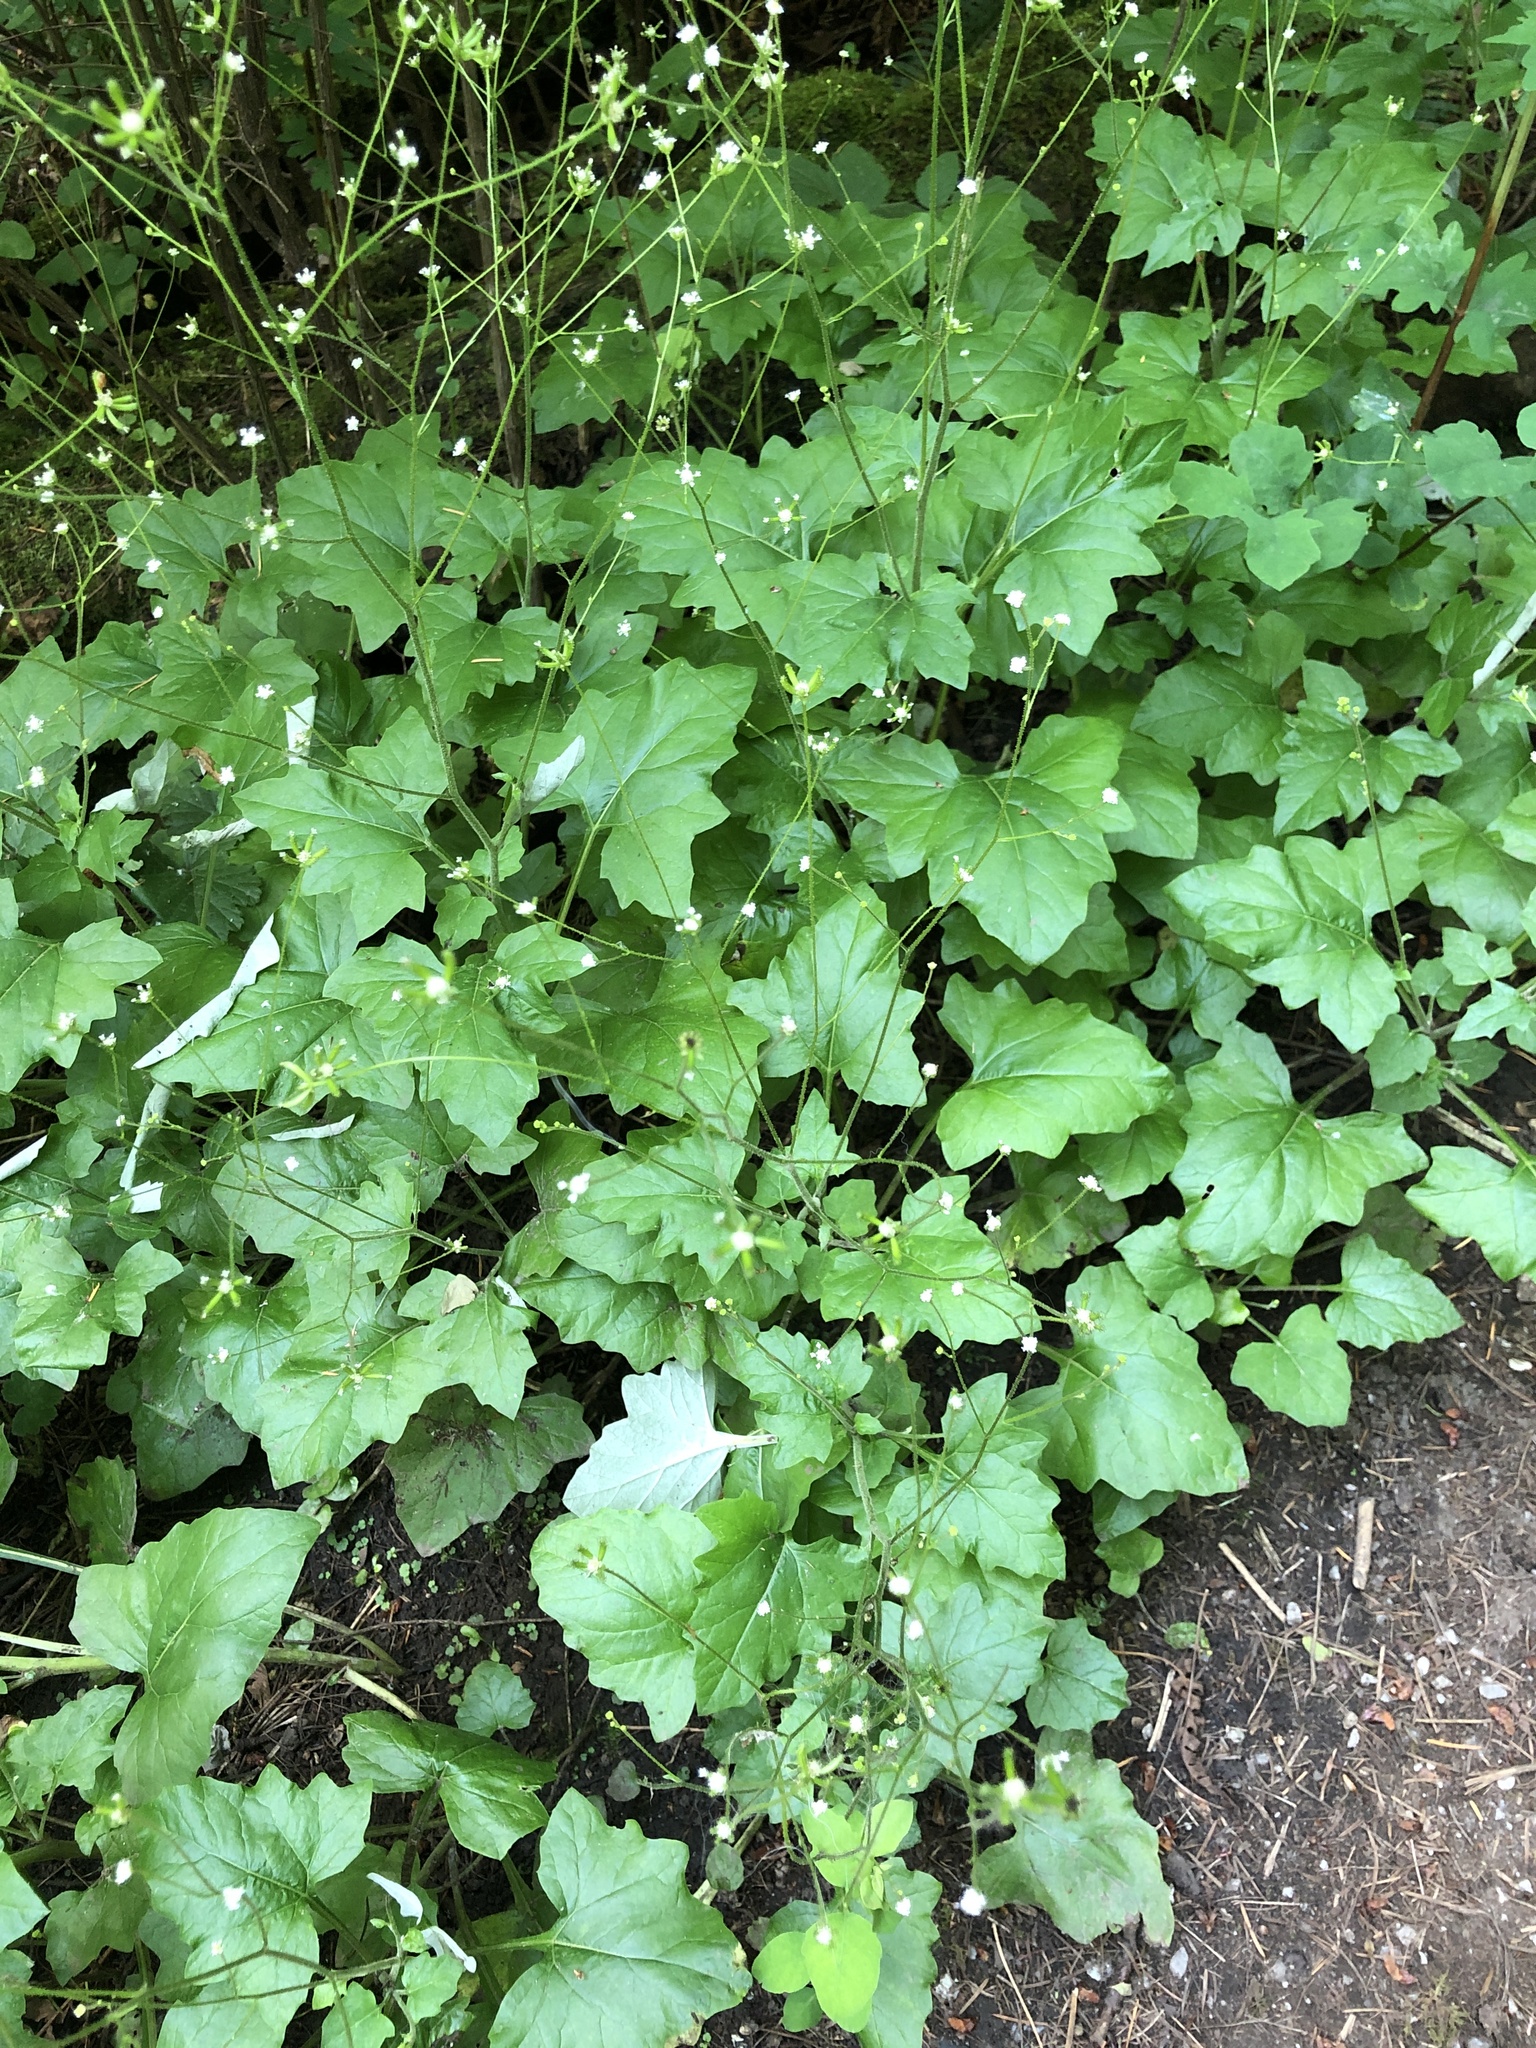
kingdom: Plantae
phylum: Tracheophyta
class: Magnoliopsida
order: Asterales
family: Asteraceae
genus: Adenocaulon
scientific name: Adenocaulon bicolor
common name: Trailplant
